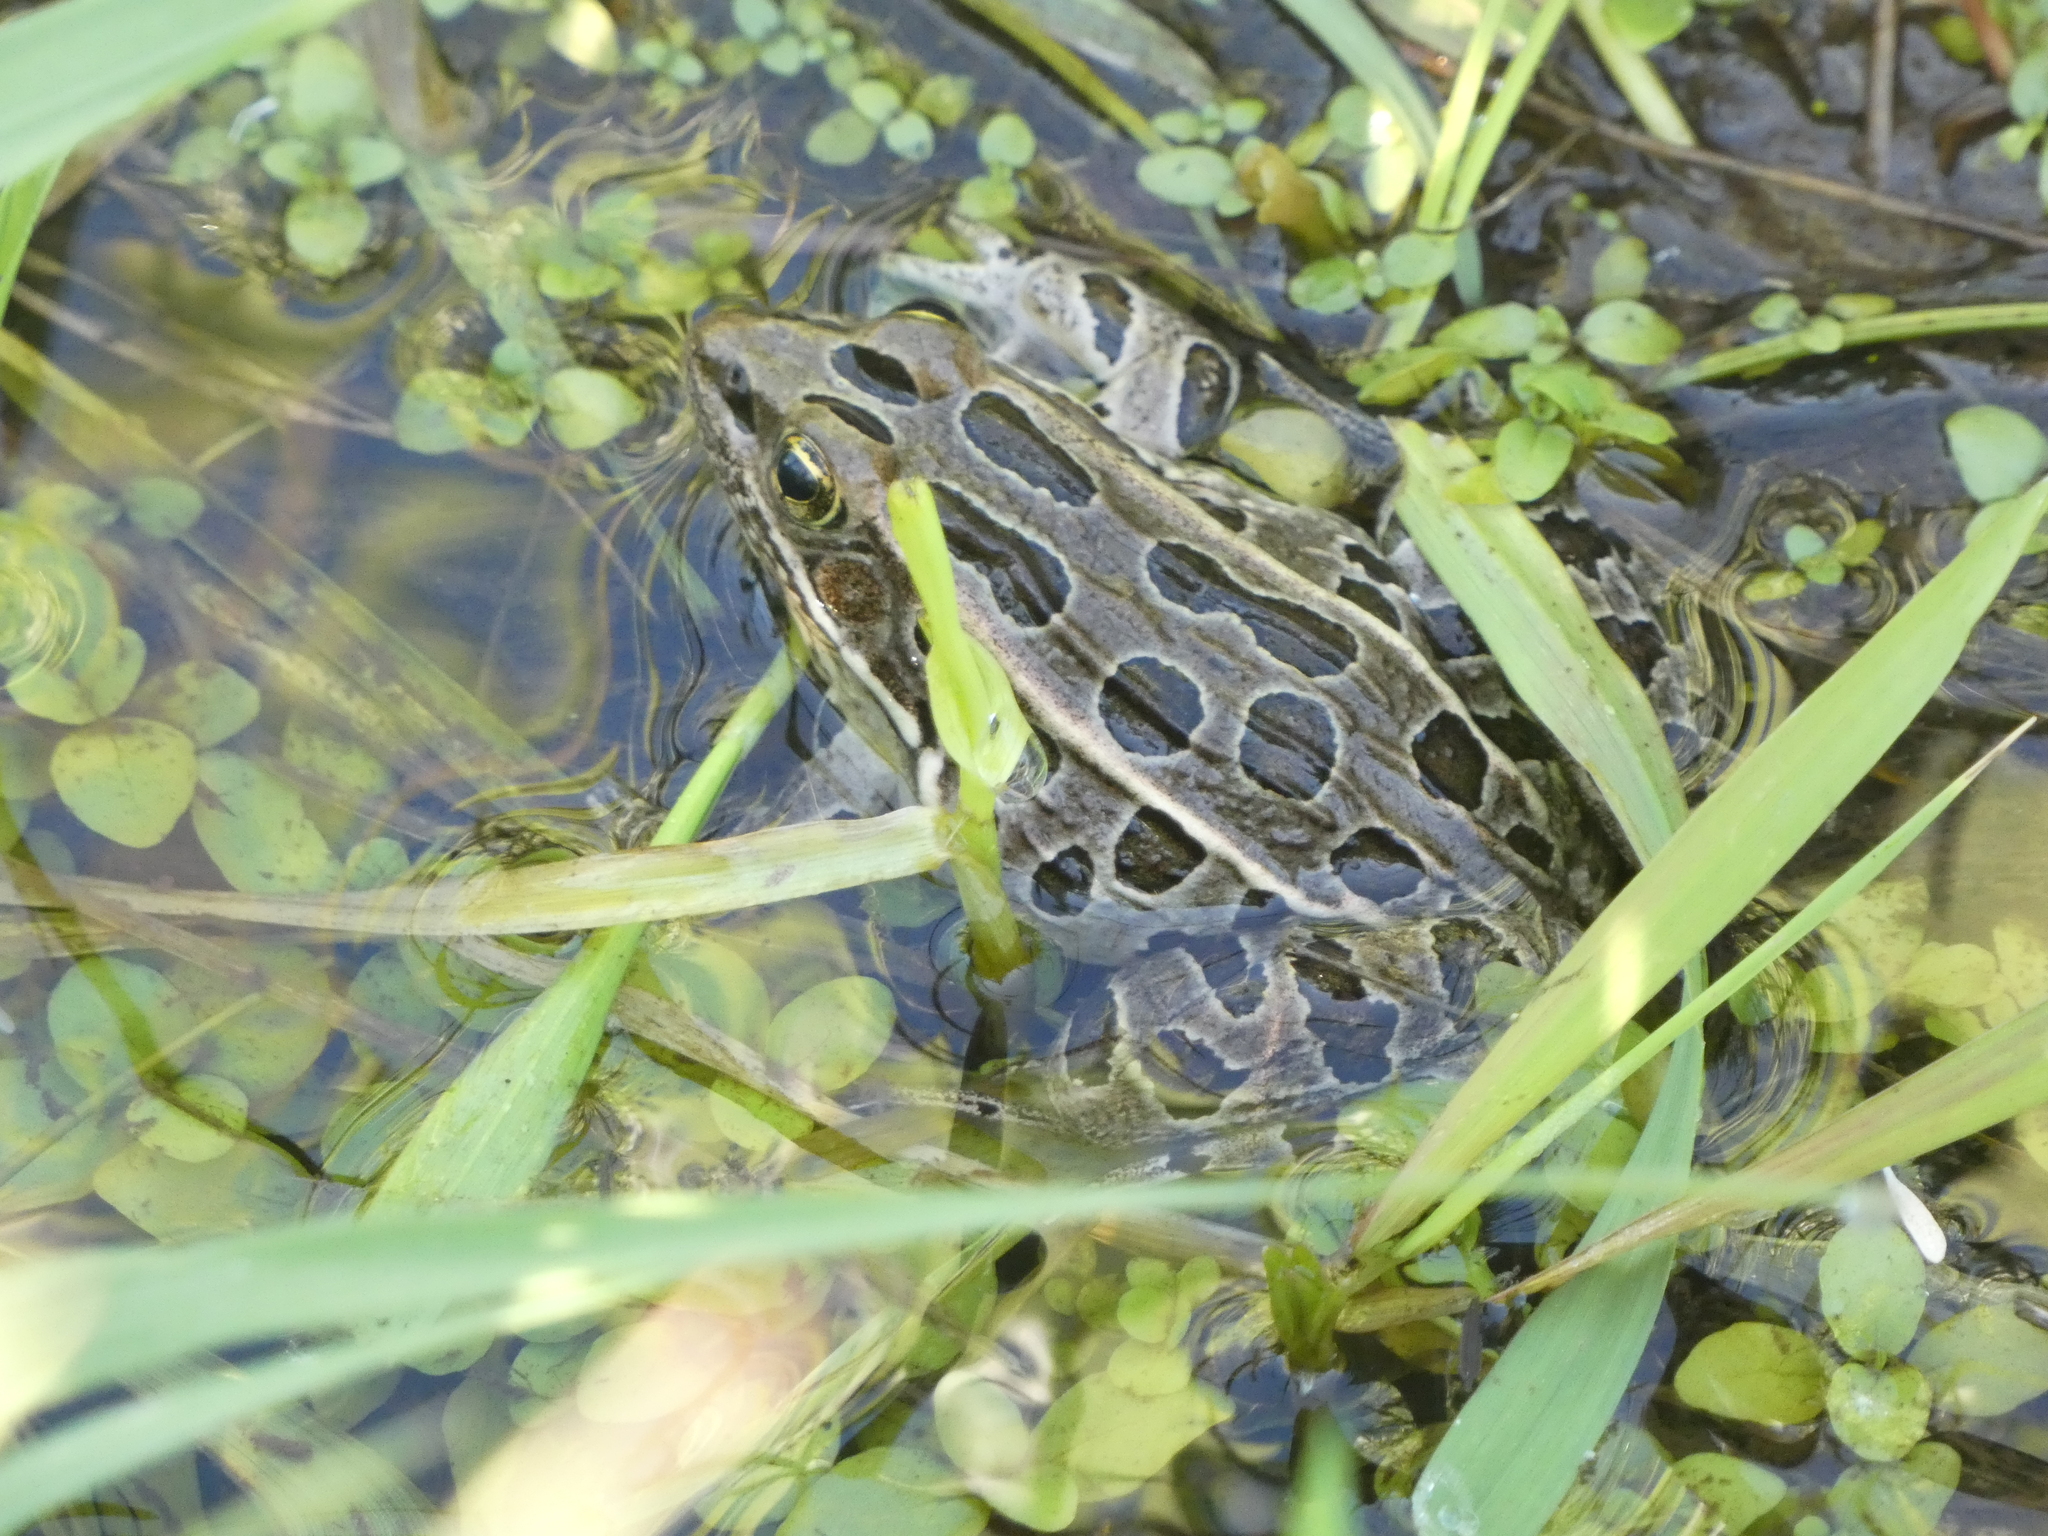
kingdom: Animalia
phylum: Chordata
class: Amphibia
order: Anura
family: Ranidae
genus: Lithobates
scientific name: Lithobates pipiens
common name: Northern leopard frog
